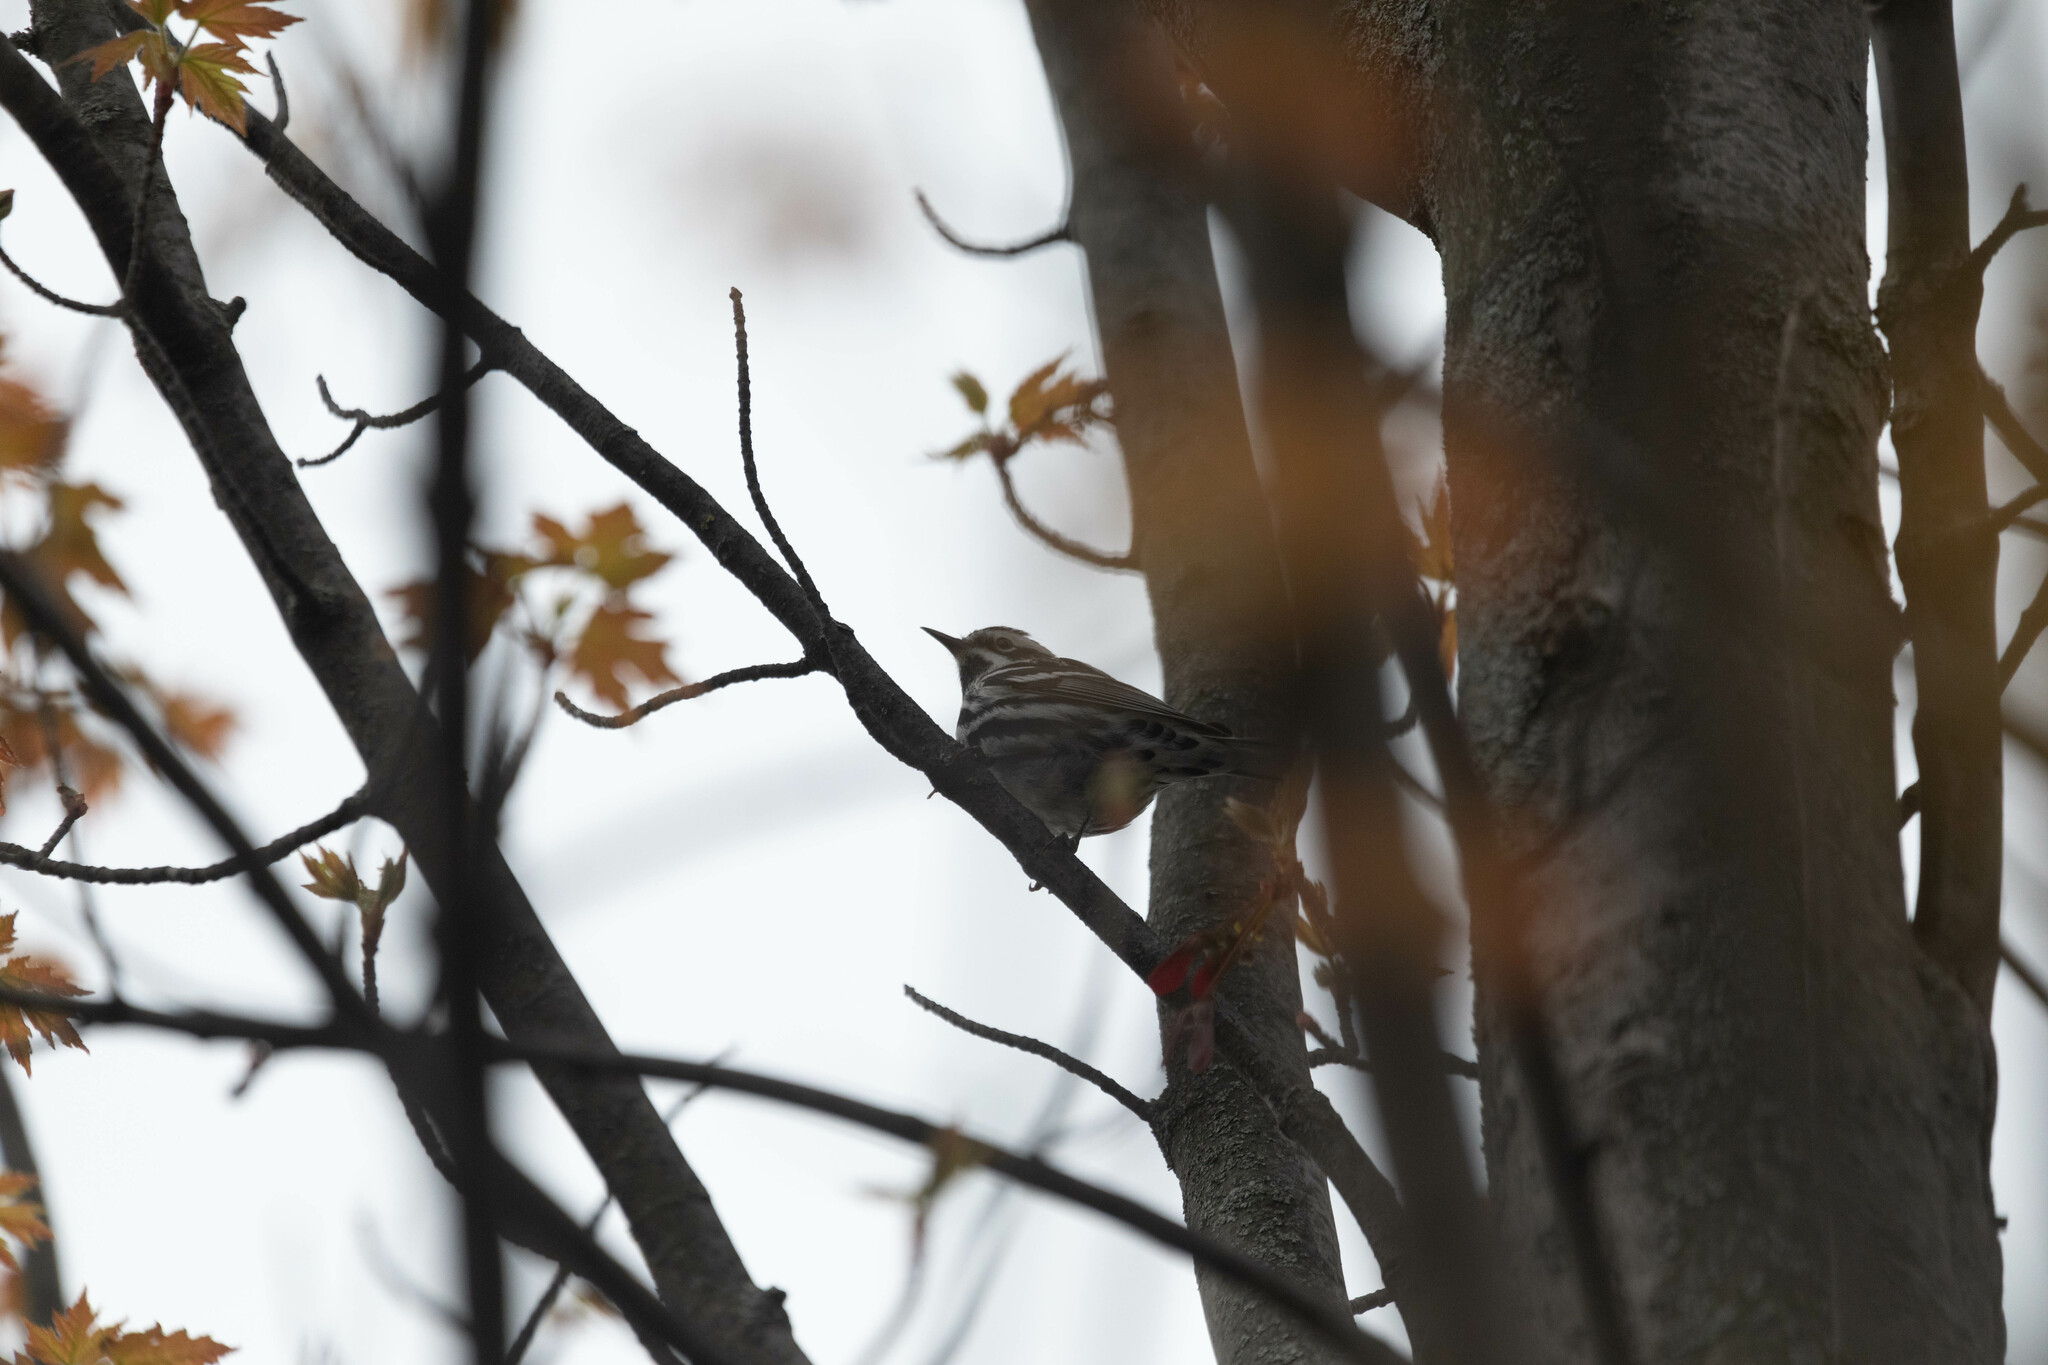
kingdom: Animalia
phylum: Chordata
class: Aves
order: Passeriformes
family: Parulidae
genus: Mniotilta
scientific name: Mniotilta varia
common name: Black-and-white warbler
